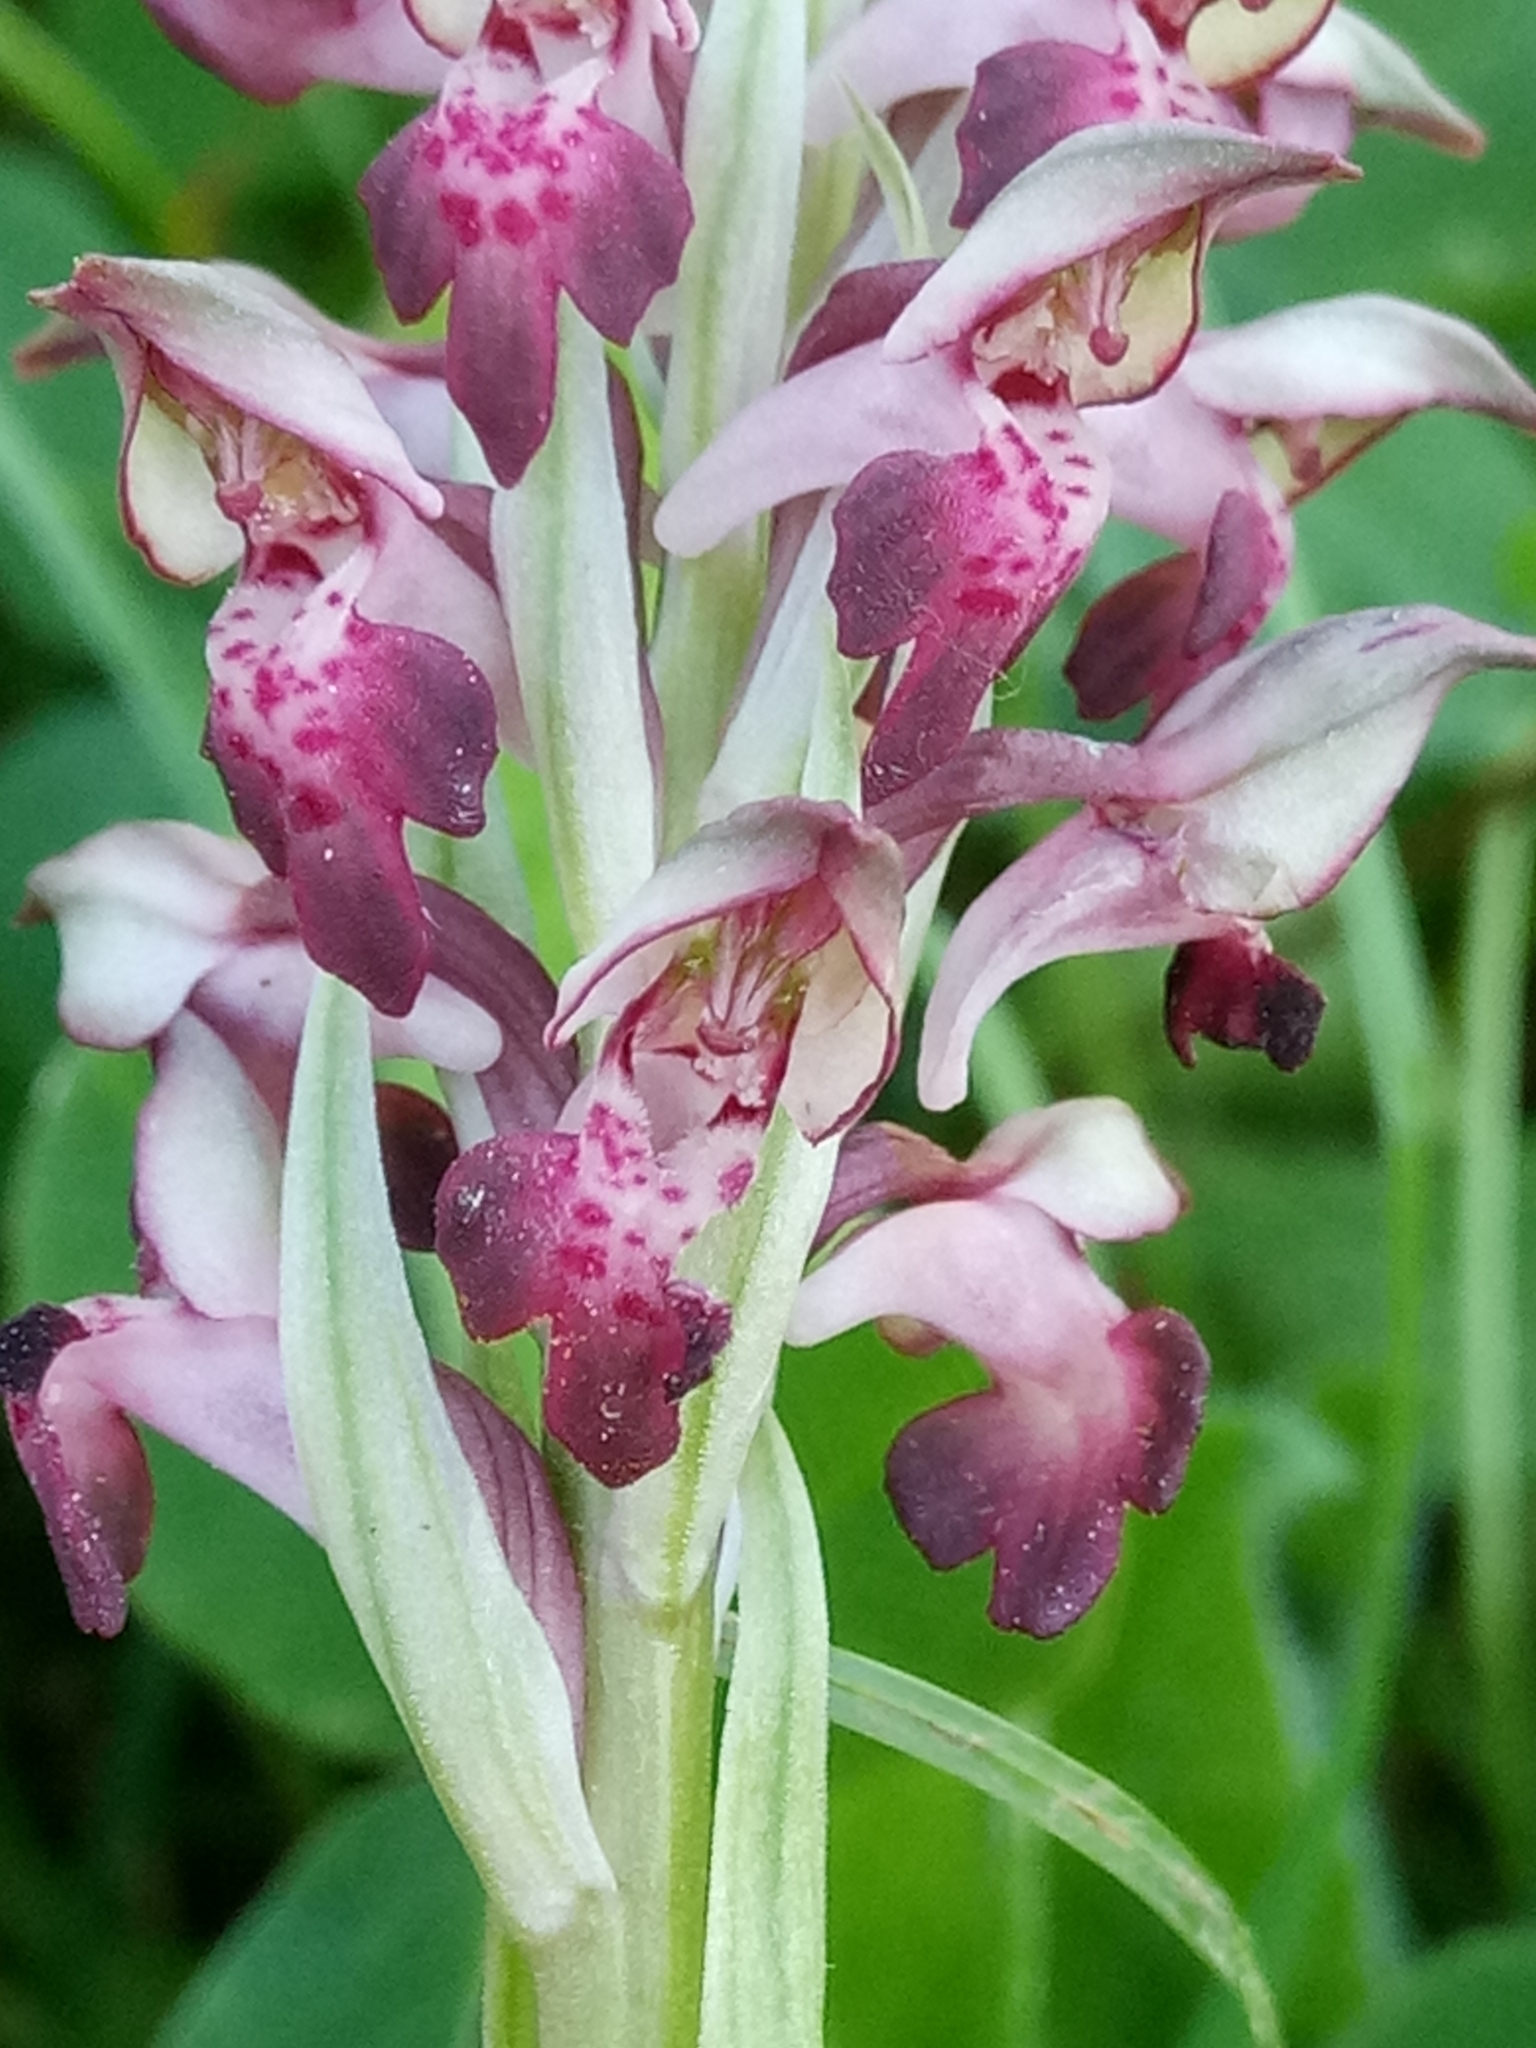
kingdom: Plantae
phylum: Tracheophyta
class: Liliopsida
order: Asparagales
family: Orchidaceae
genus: Anacamptis
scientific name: Anacamptis coriophora
